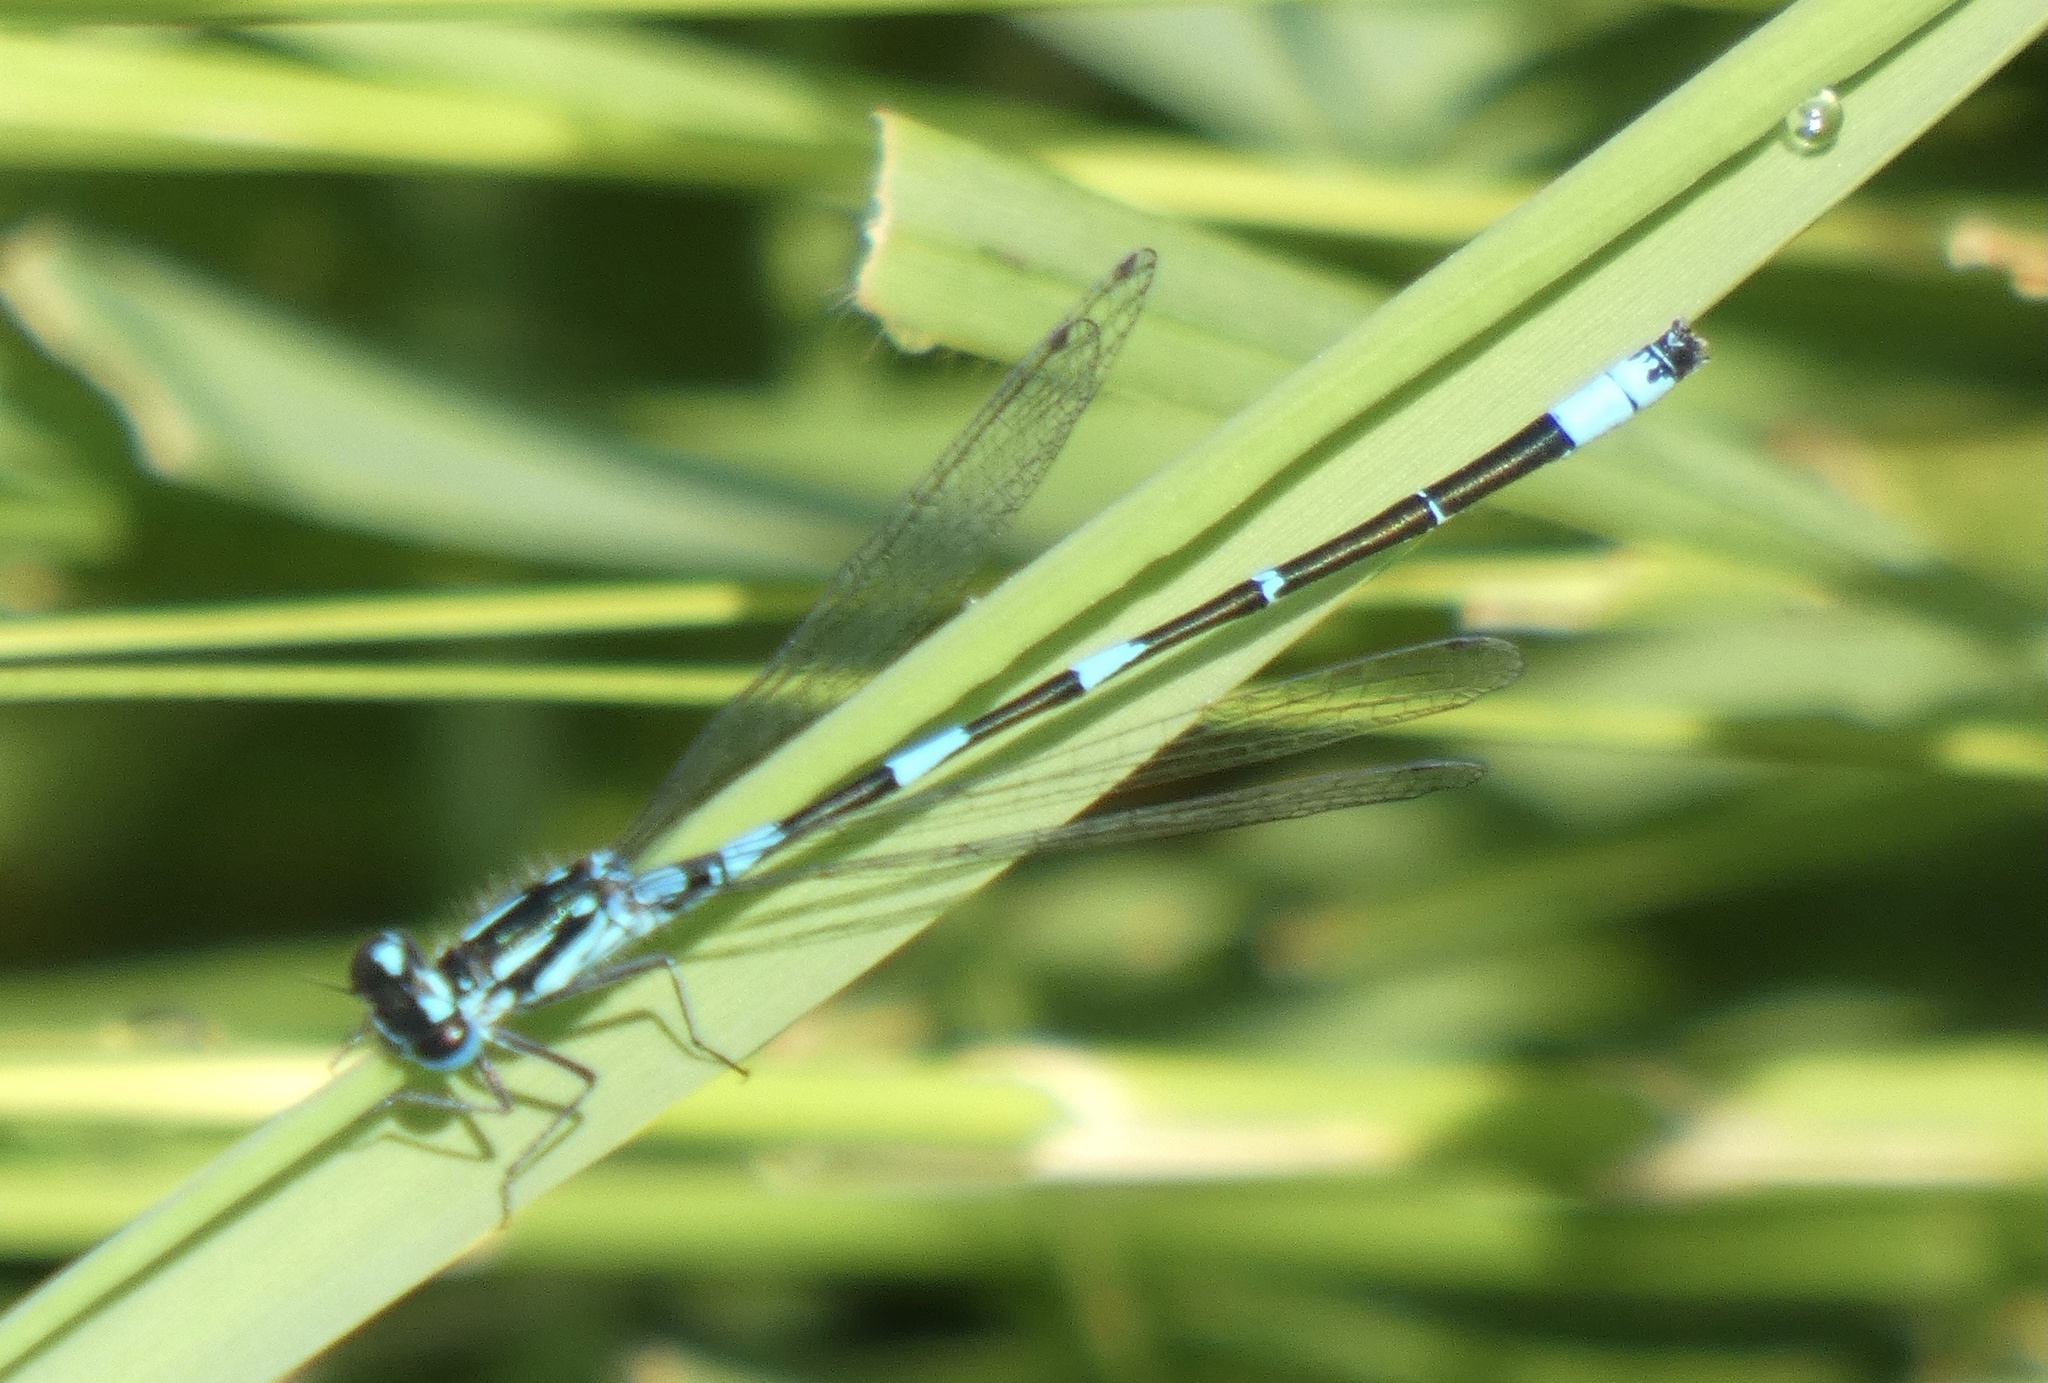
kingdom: Animalia
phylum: Arthropoda
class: Insecta
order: Odonata
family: Coenagrionidae
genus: Coenagrion
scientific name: Coenagrion pulchellum
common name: Variable bluet
